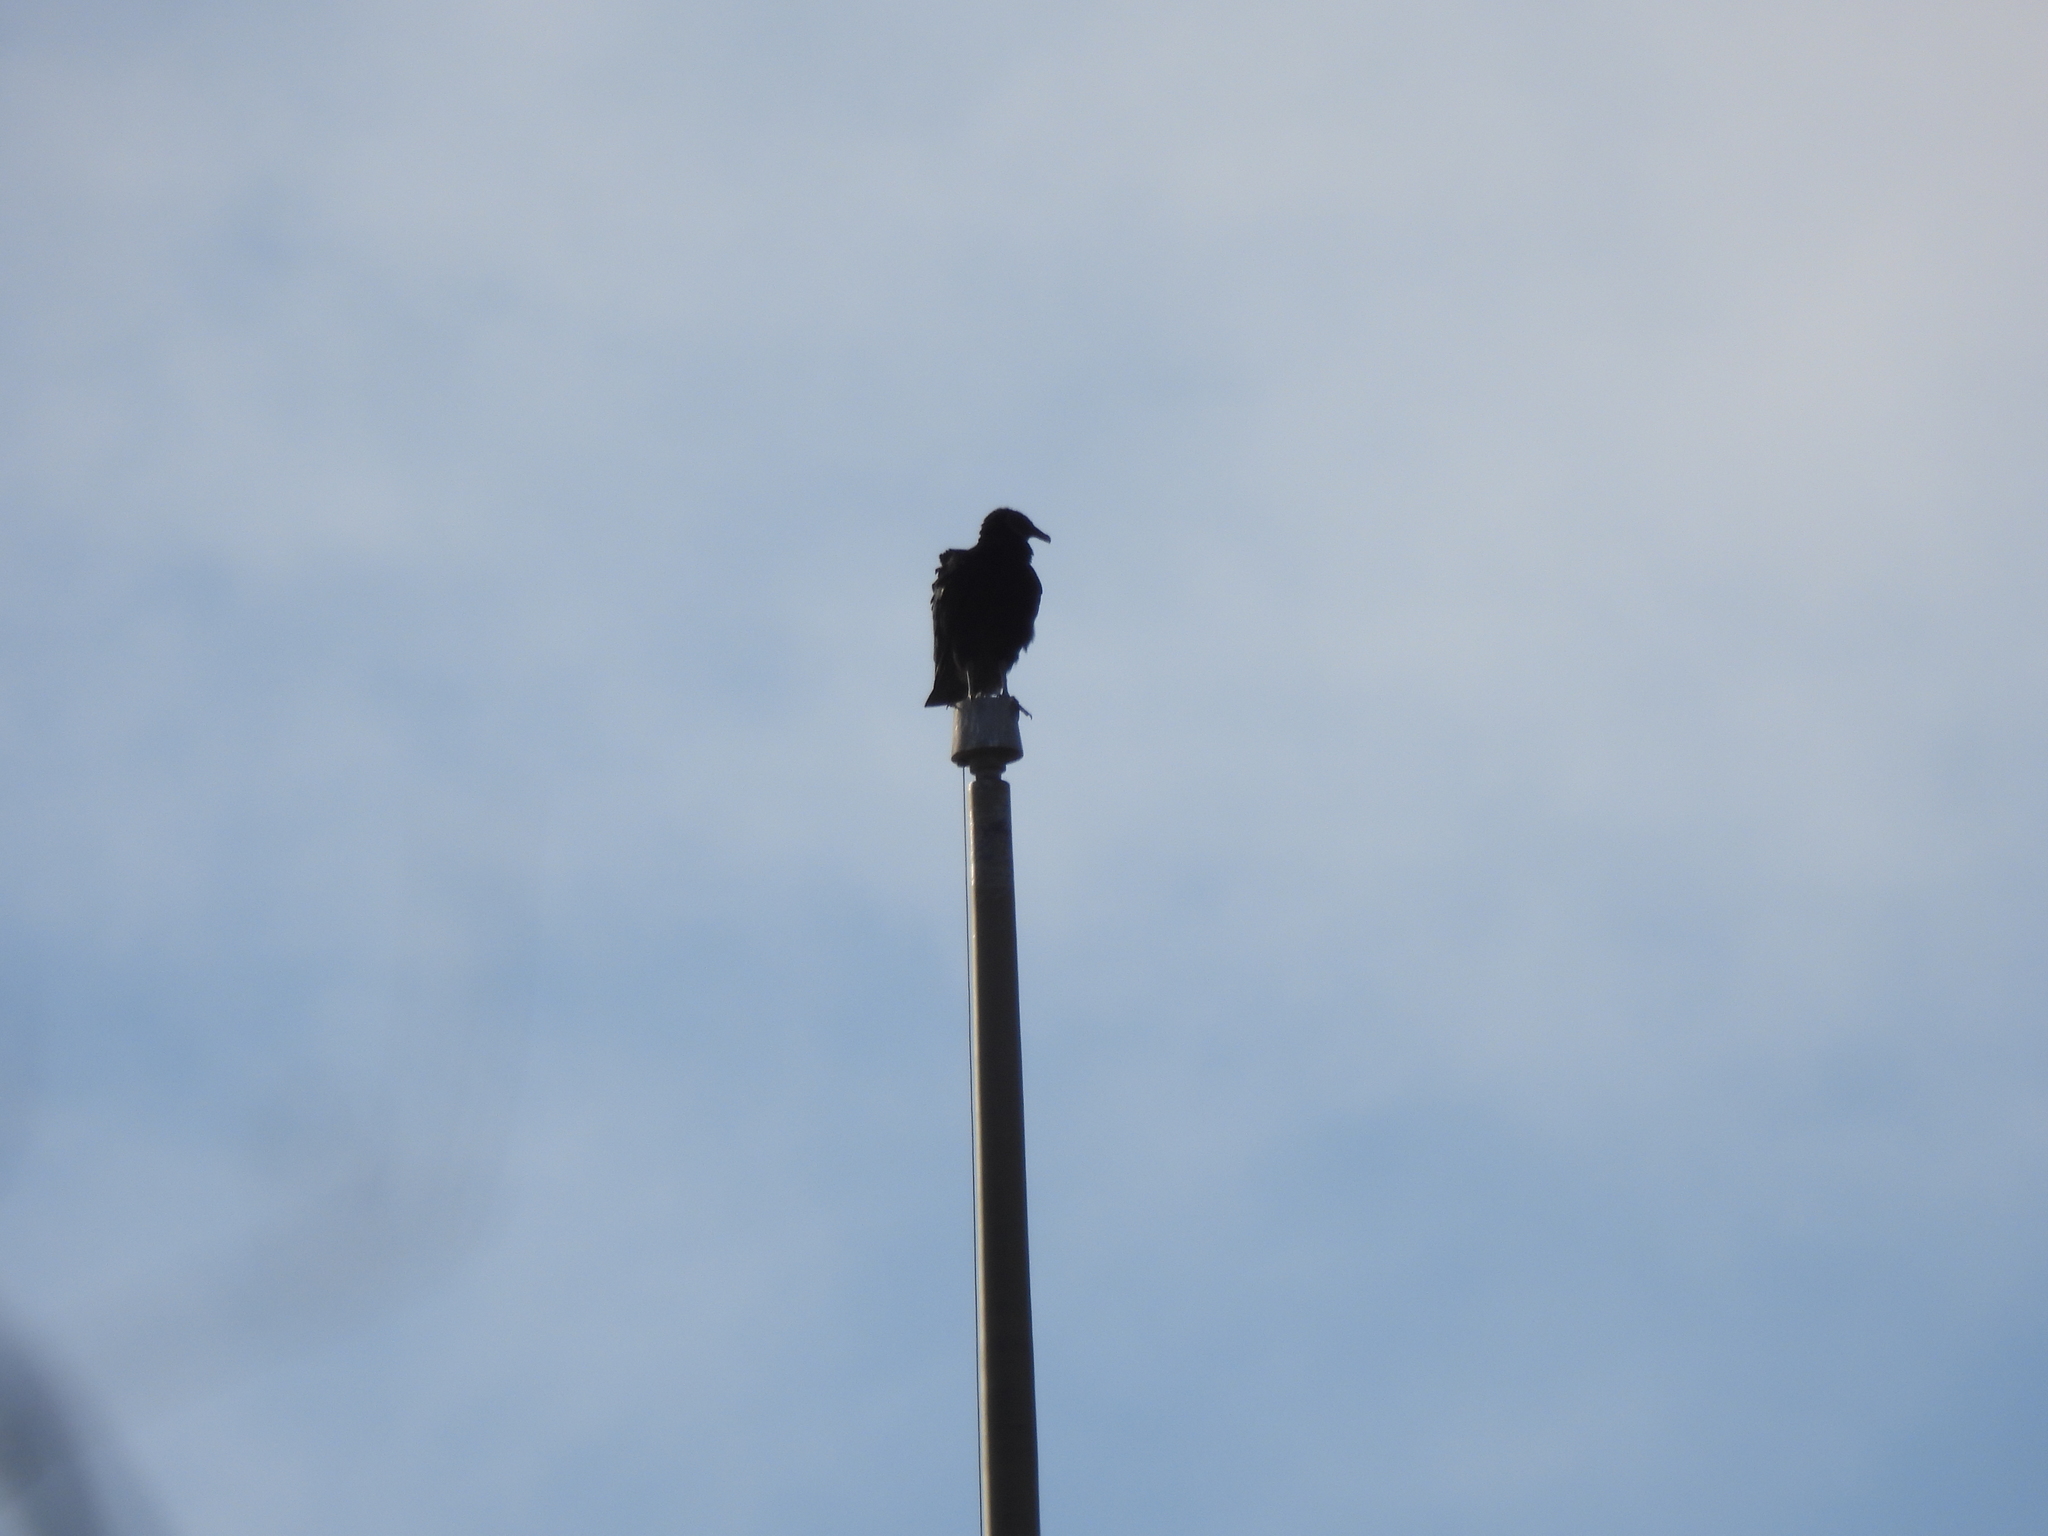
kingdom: Animalia
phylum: Chordata
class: Aves
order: Accipitriformes
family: Cathartidae
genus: Coragyps
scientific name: Coragyps atratus
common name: Black vulture
